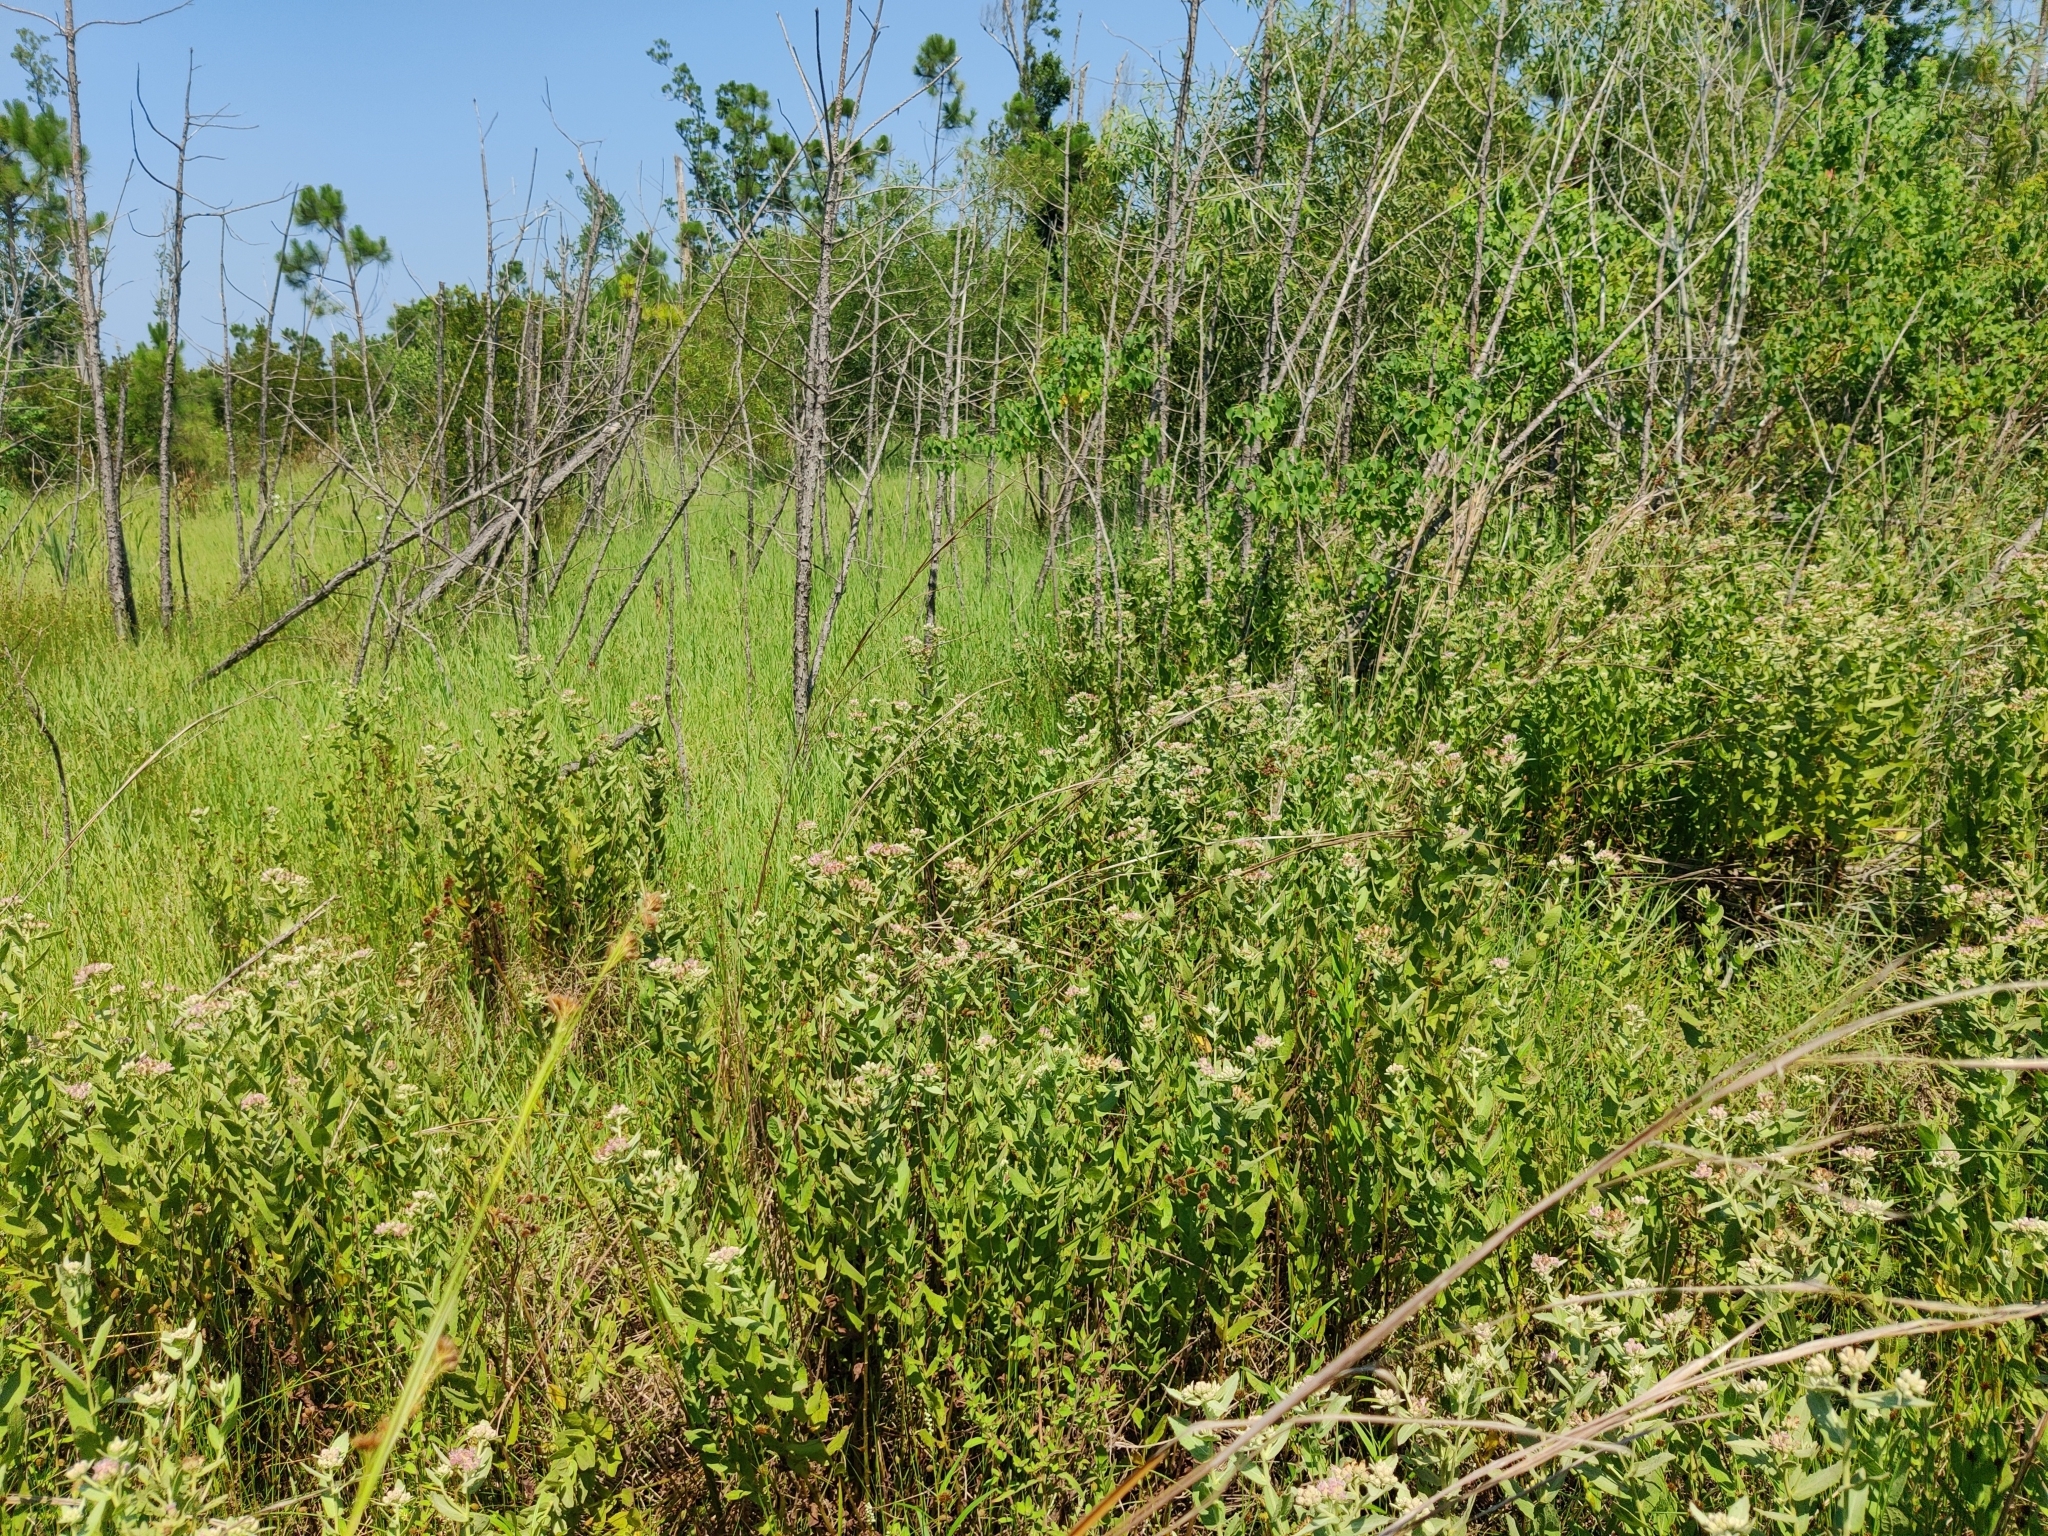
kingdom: Plantae
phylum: Tracheophyta
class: Magnoliopsida
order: Asterales
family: Asteraceae
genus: Pluchea
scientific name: Pluchea baccharis
